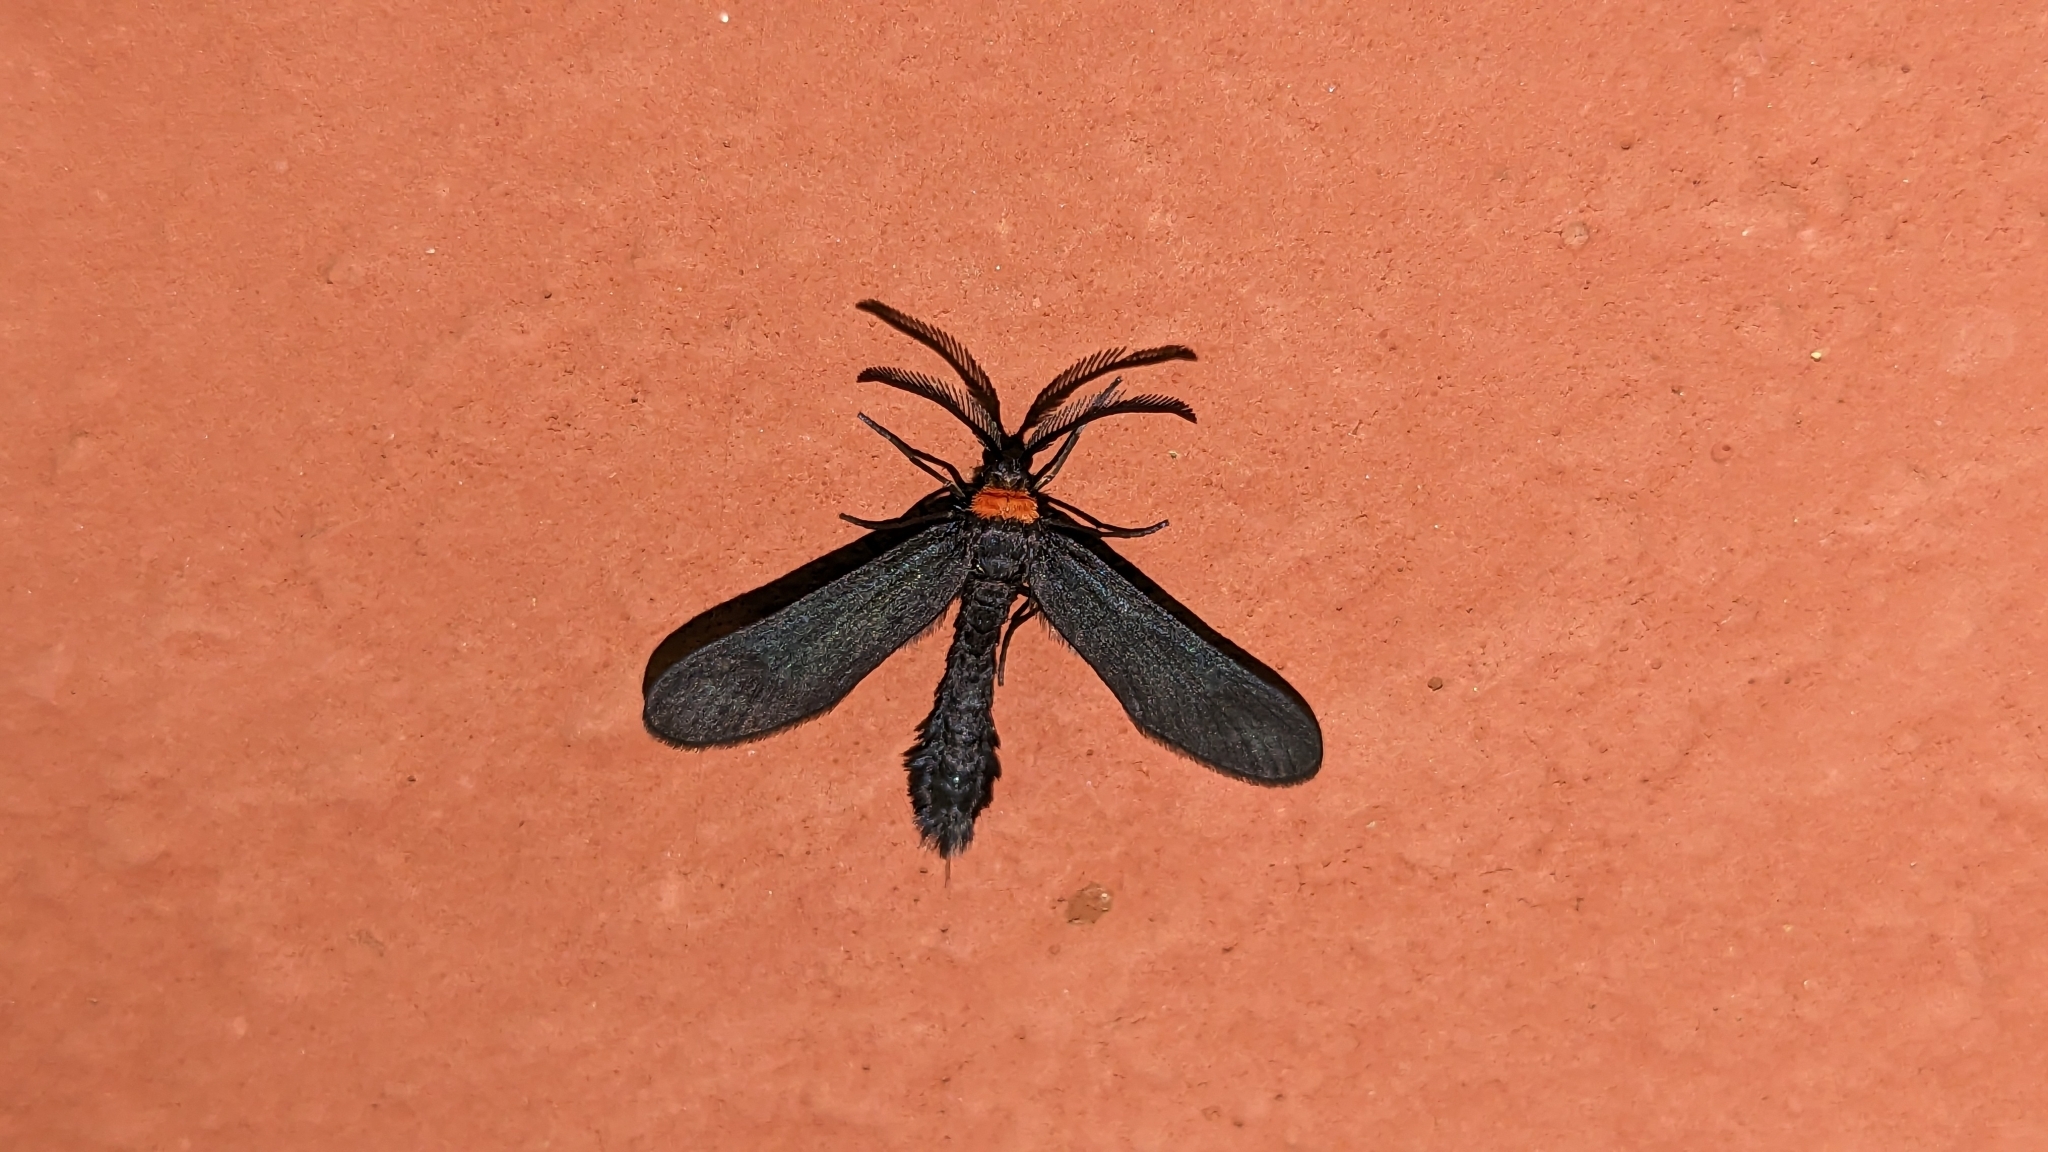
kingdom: Animalia
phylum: Arthropoda
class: Insecta
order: Lepidoptera
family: Zygaenidae
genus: Harrisina
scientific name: Harrisina americana
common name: Grapeleaf skeletonizer moth
